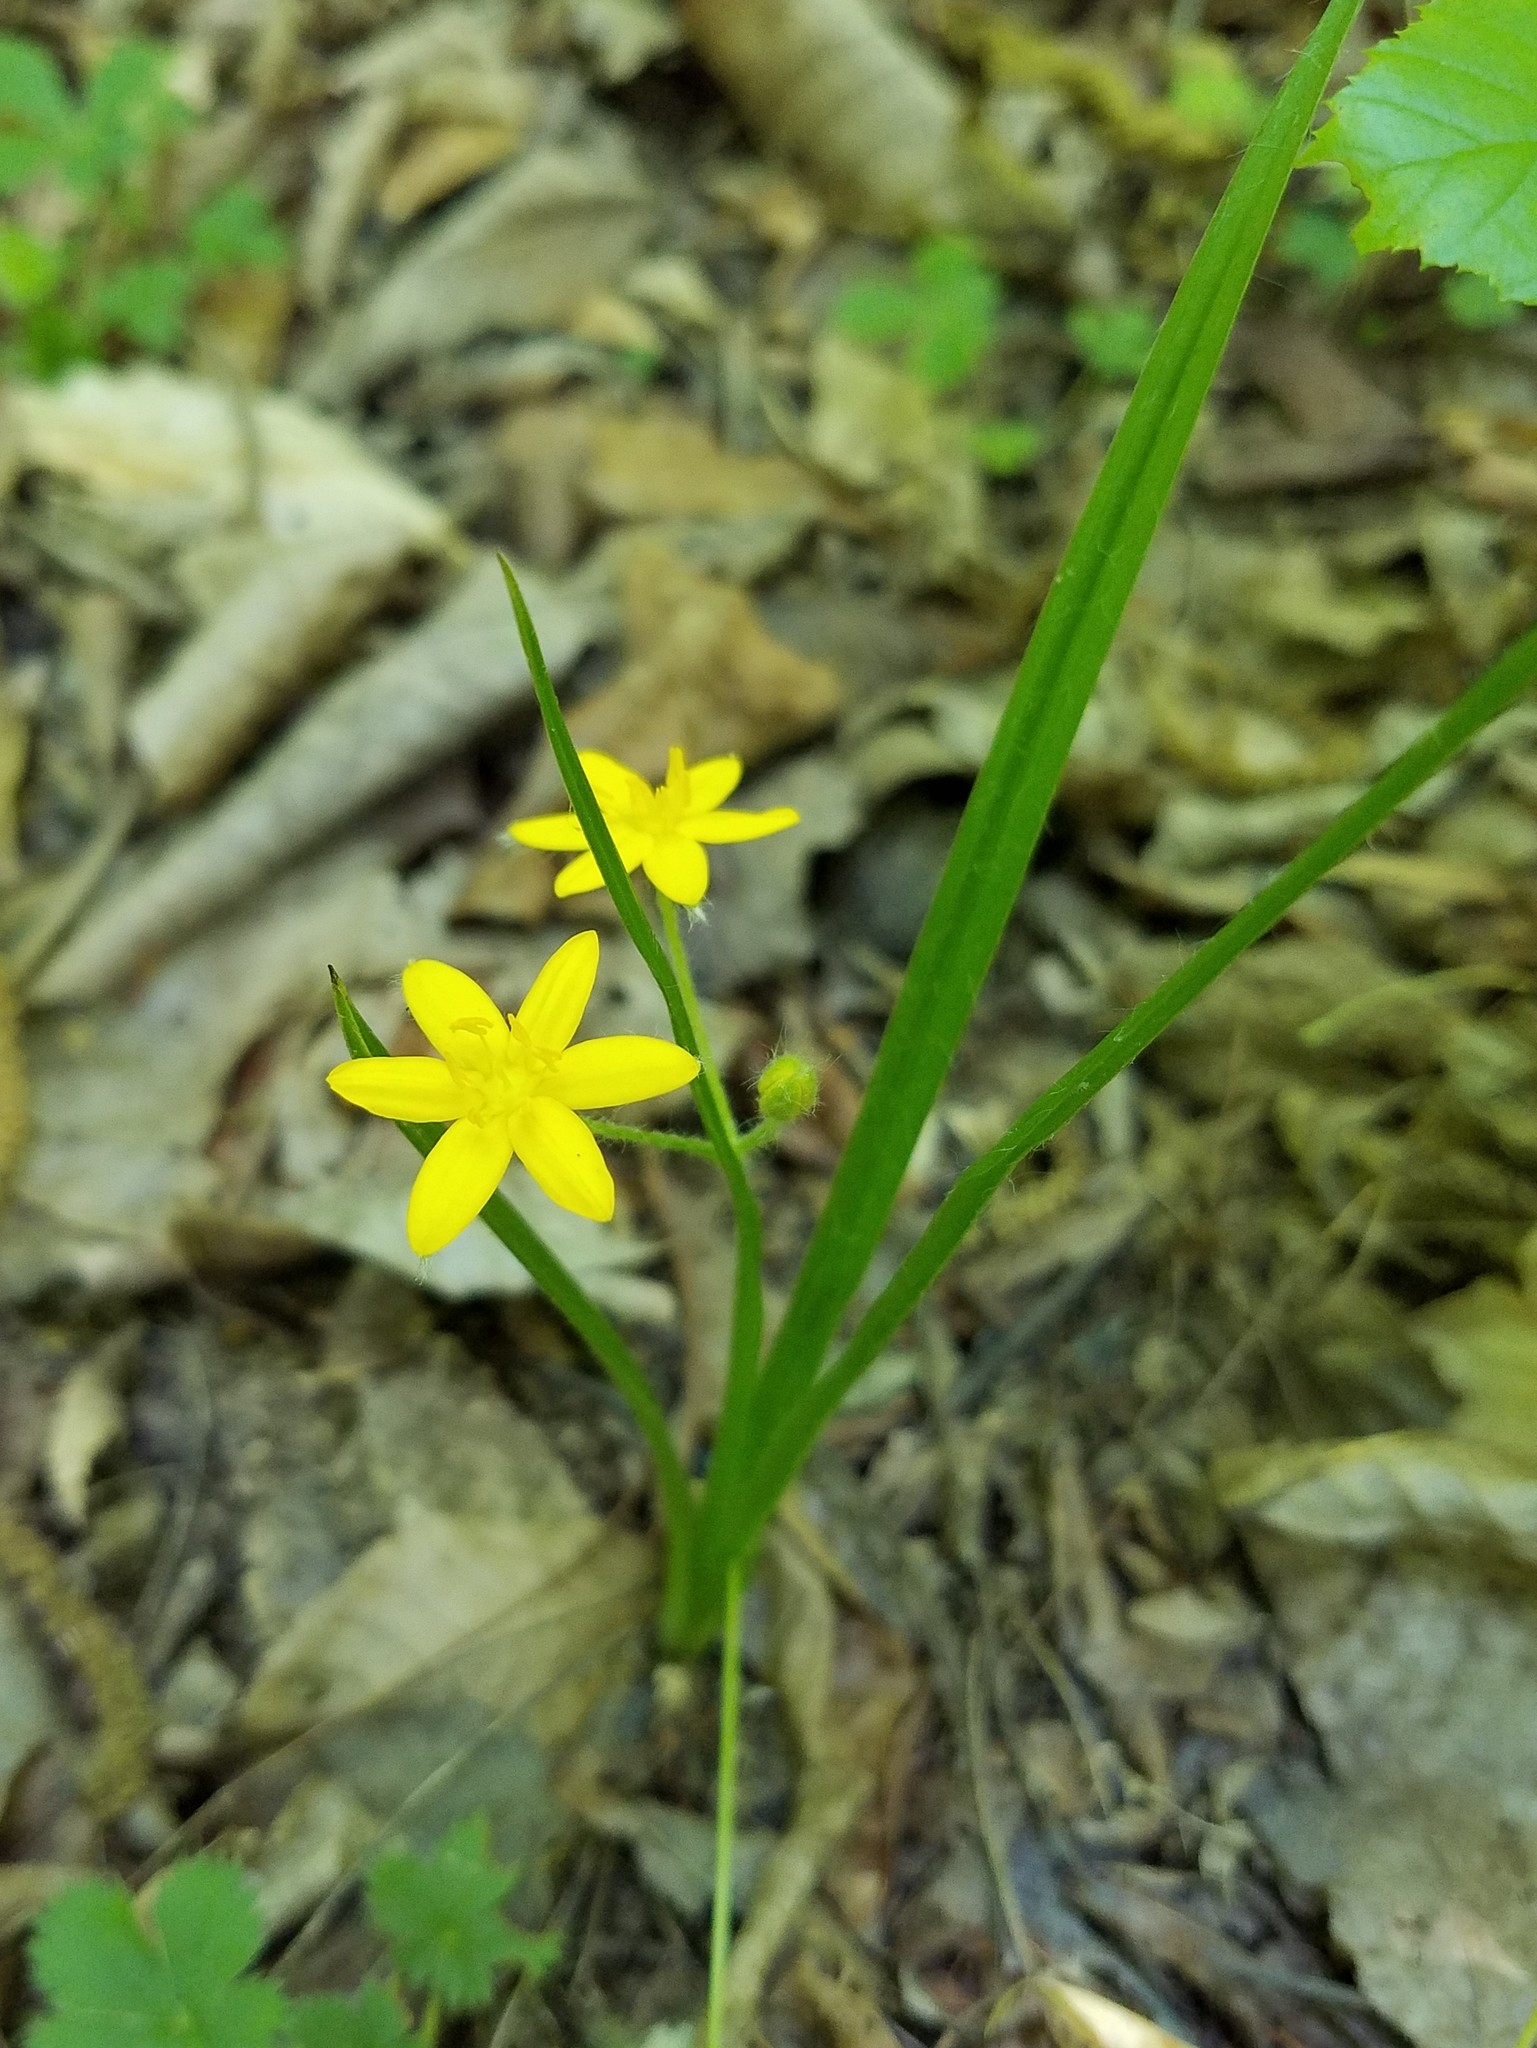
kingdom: Plantae
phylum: Tracheophyta
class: Liliopsida
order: Asparagales
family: Hypoxidaceae
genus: Hypoxis
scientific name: Hypoxis hirsuta
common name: Common goldstar
